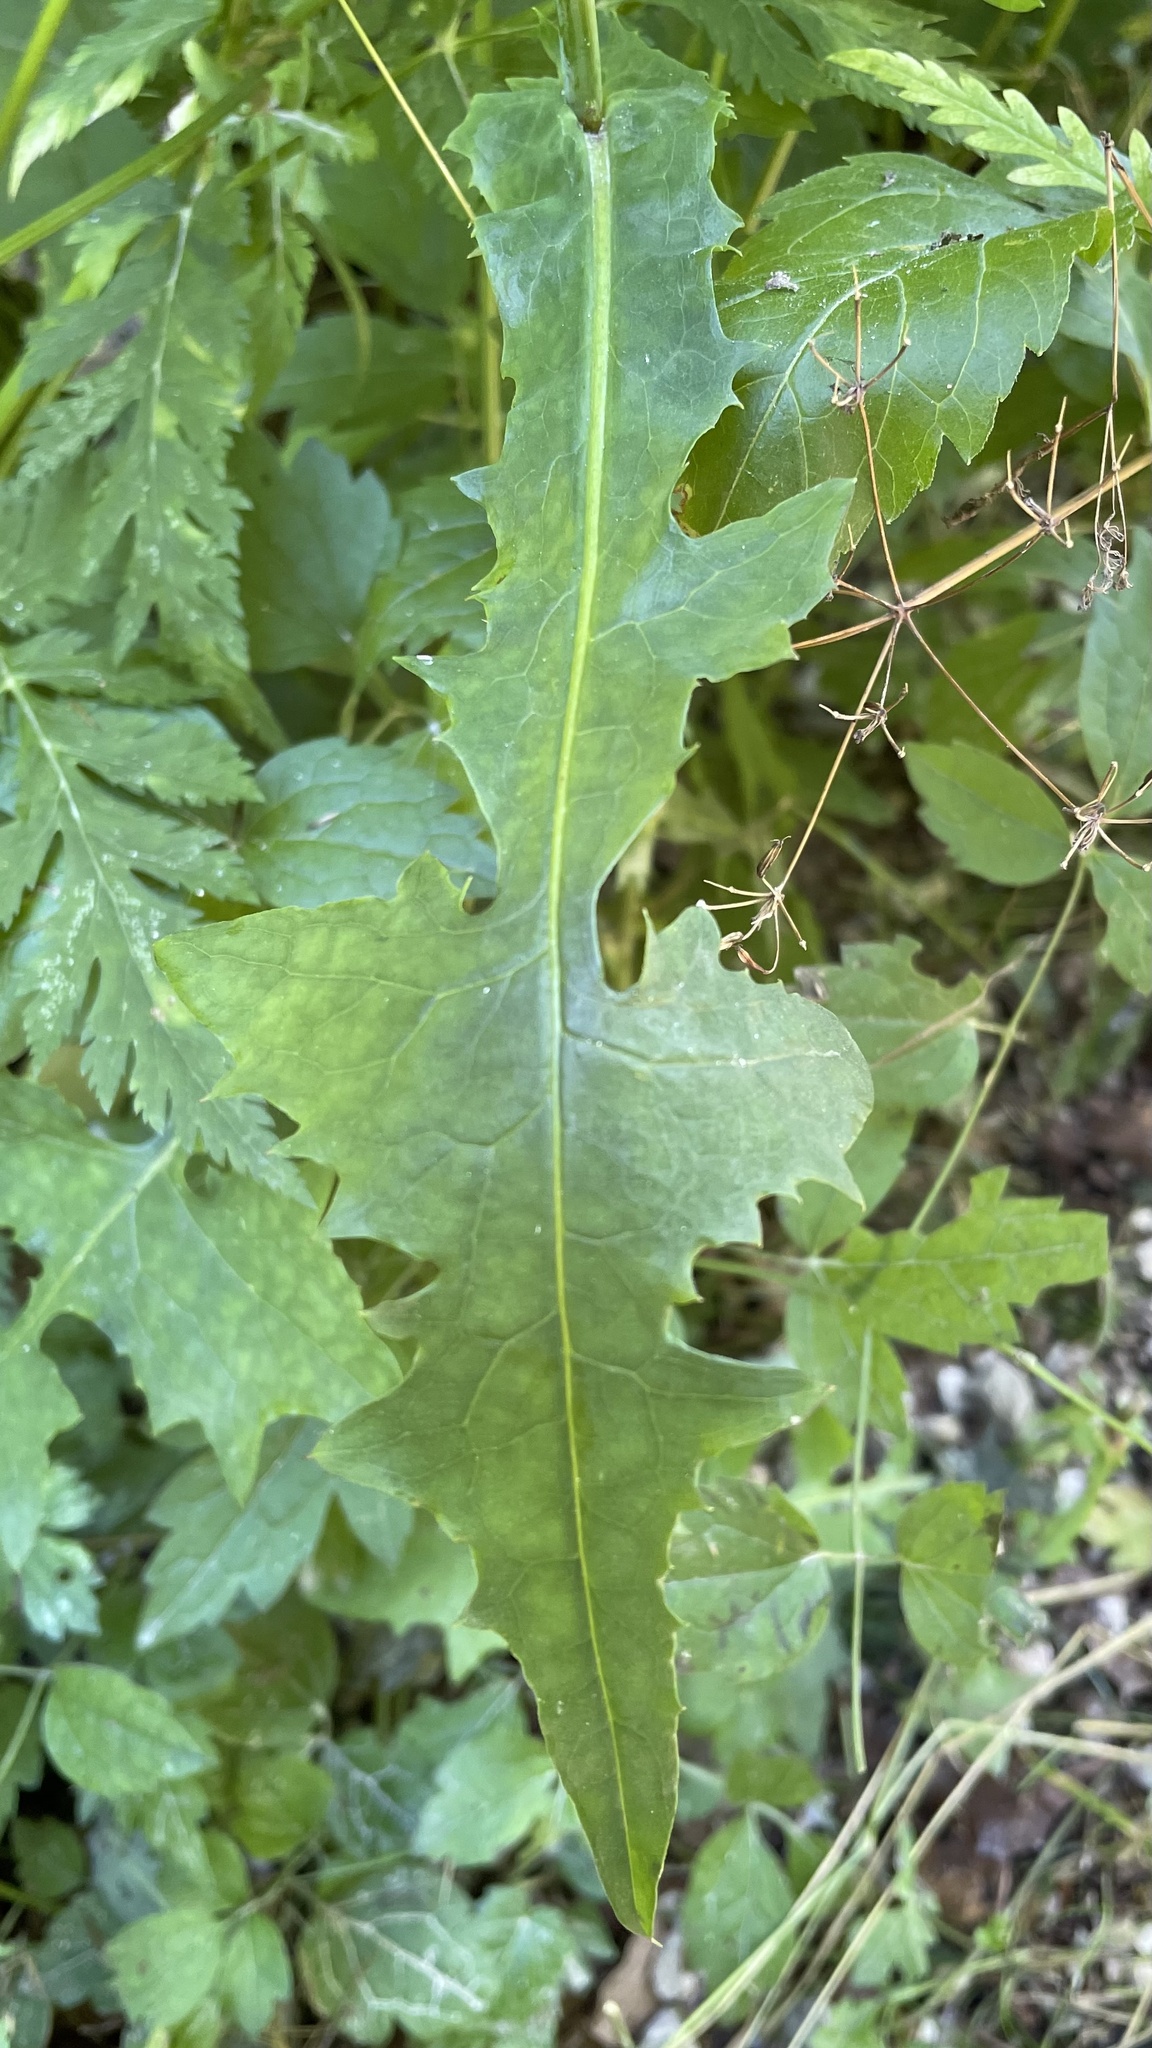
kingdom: Plantae
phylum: Tracheophyta
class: Magnoliopsida
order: Asterales
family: Asteraceae
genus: Mycelis
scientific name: Mycelis muralis
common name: Wall lettuce
